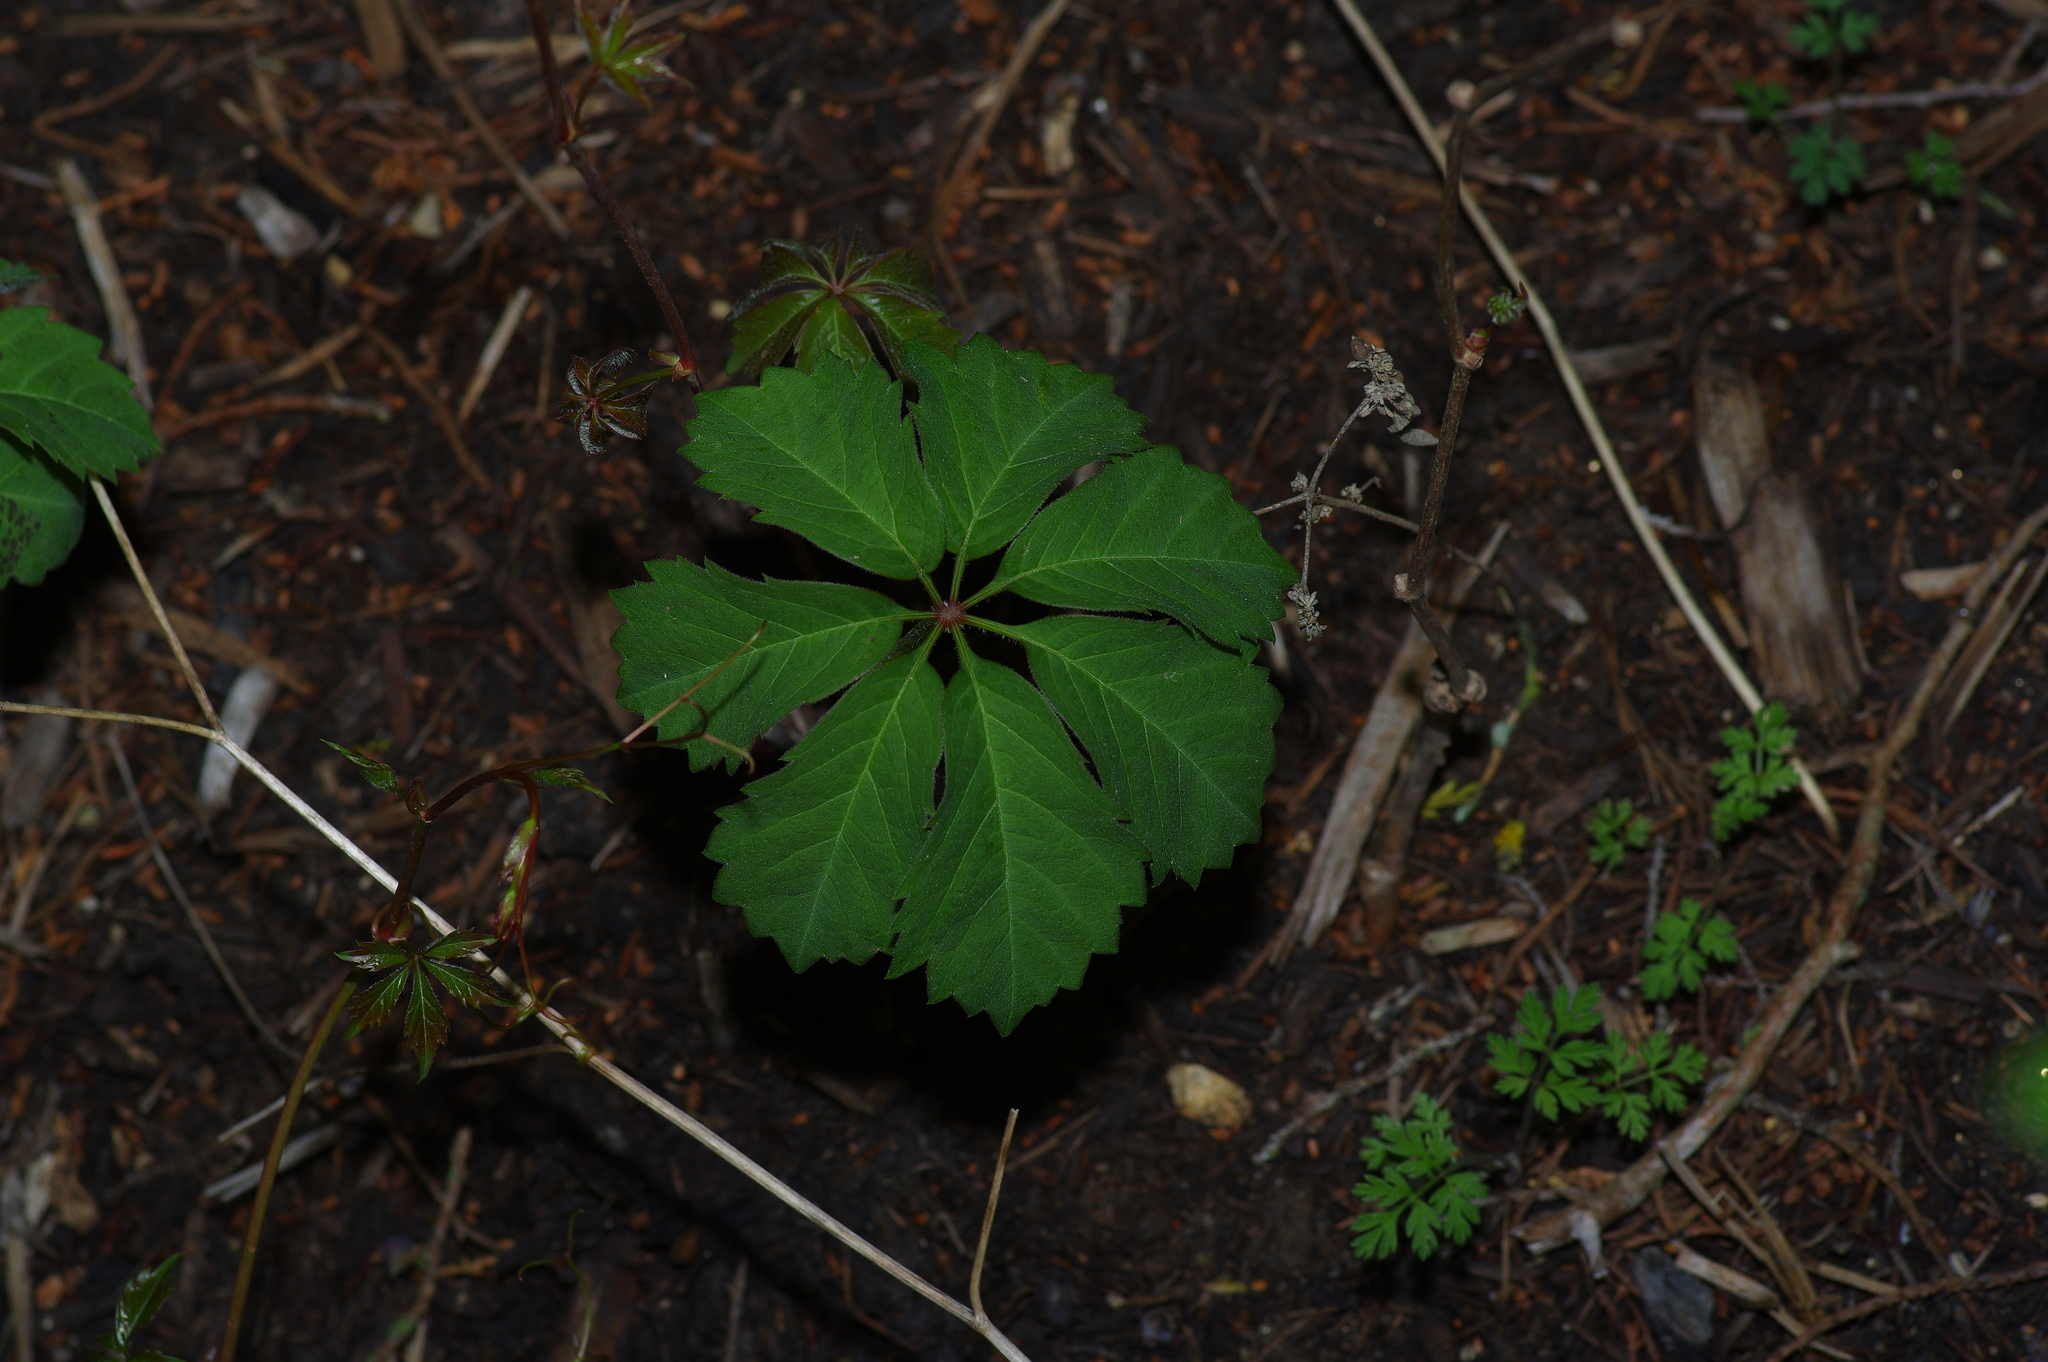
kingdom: Plantae
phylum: Tracheophyta
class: Magnoliopsida
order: Vitales
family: Vitaceae
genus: Parthenocissus
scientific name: Parthenocissus heptaphylla
